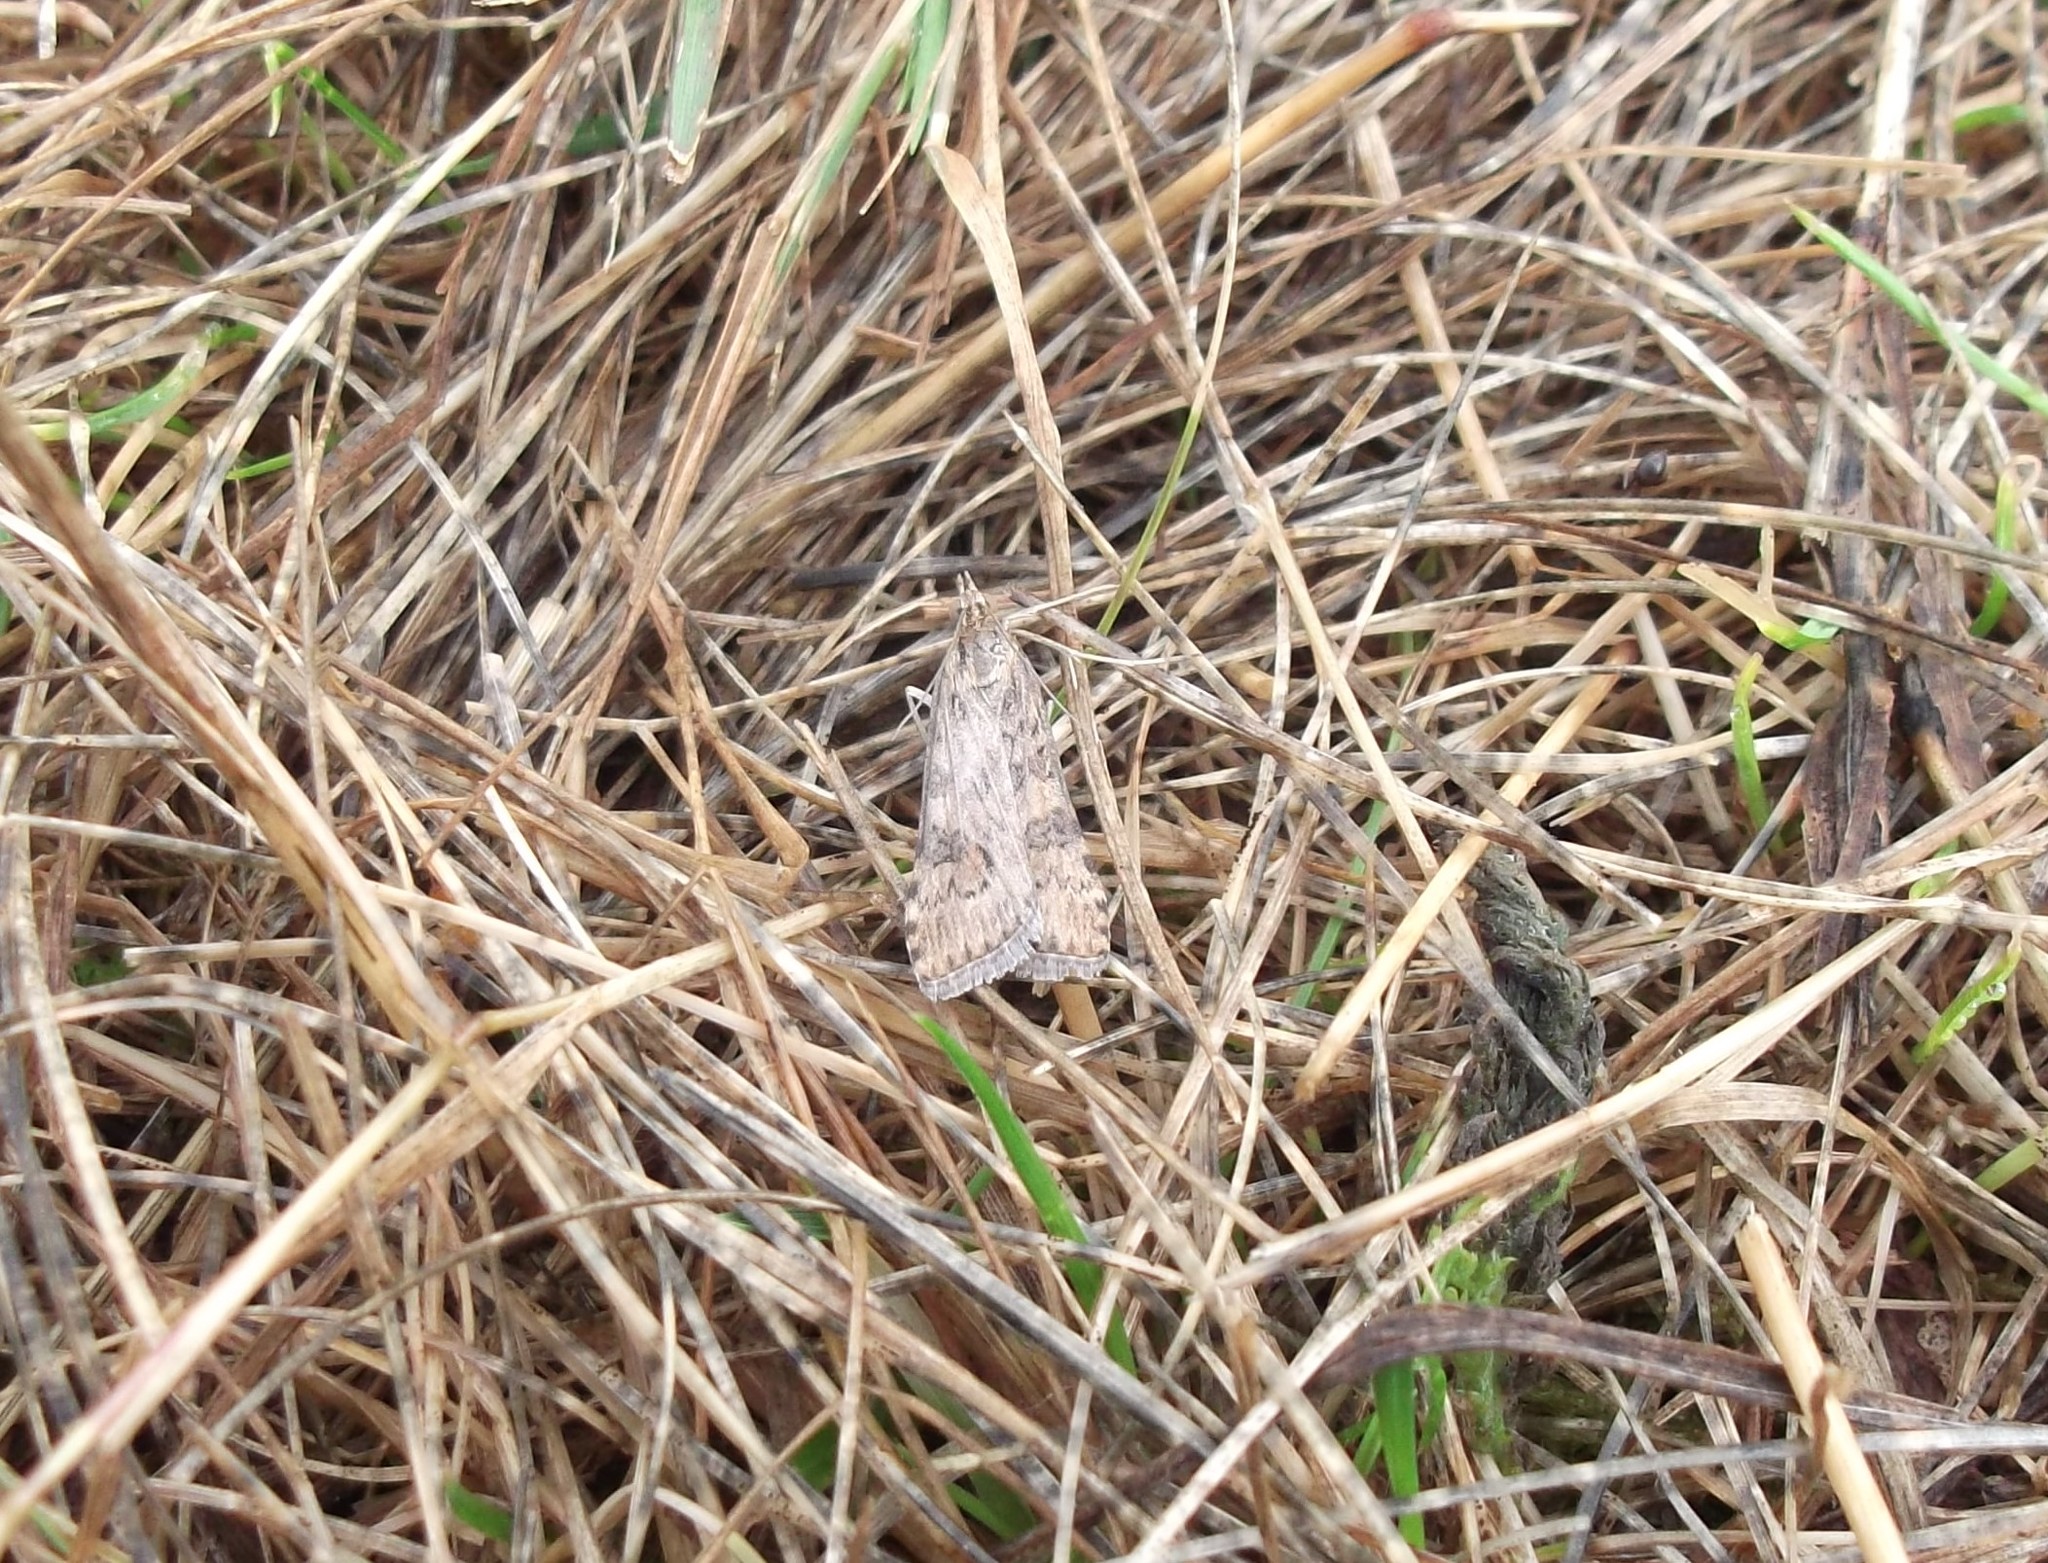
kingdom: Animalia
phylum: Arthropoda
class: Insecta
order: Lepidoptera
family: Crambidae
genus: Nomophila
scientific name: Nomophila noctuella
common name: Rush veneer
